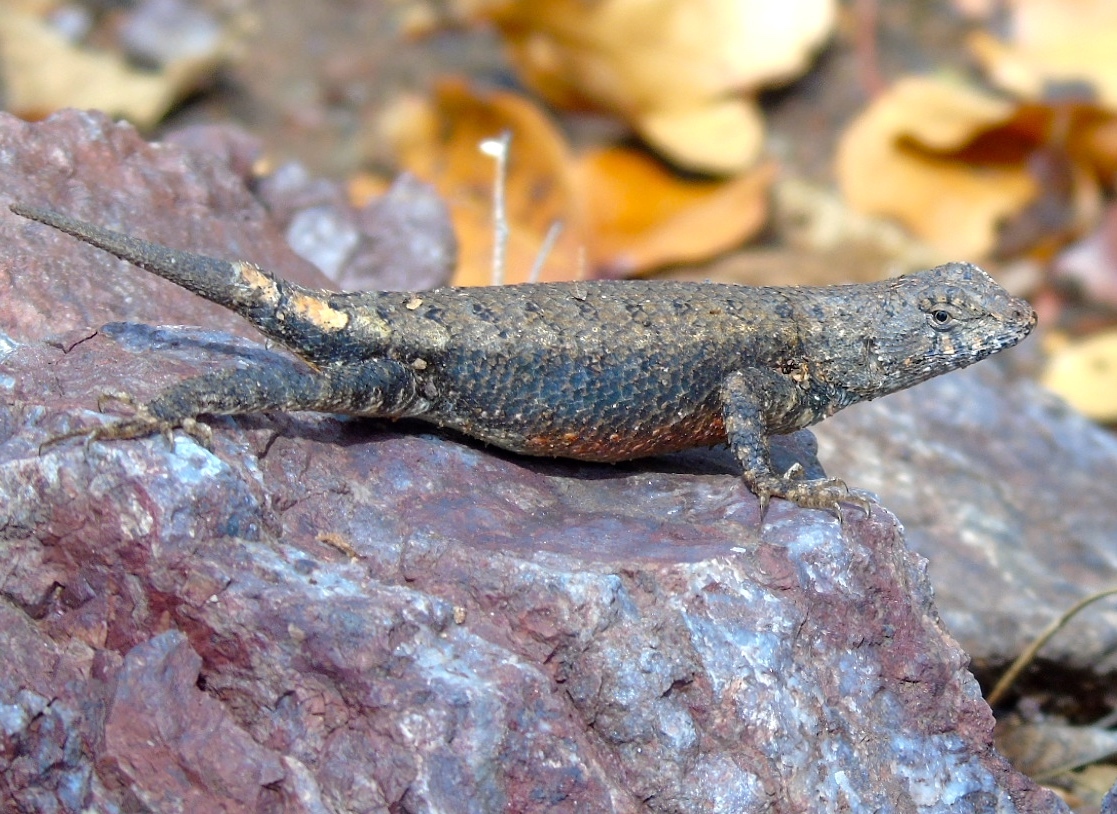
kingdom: Animalia
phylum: Chordata
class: Squamata
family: Phrynosomatidae
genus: Sceloporus
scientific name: Sceloporus nelsoni
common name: Nelson's spiny lizard
